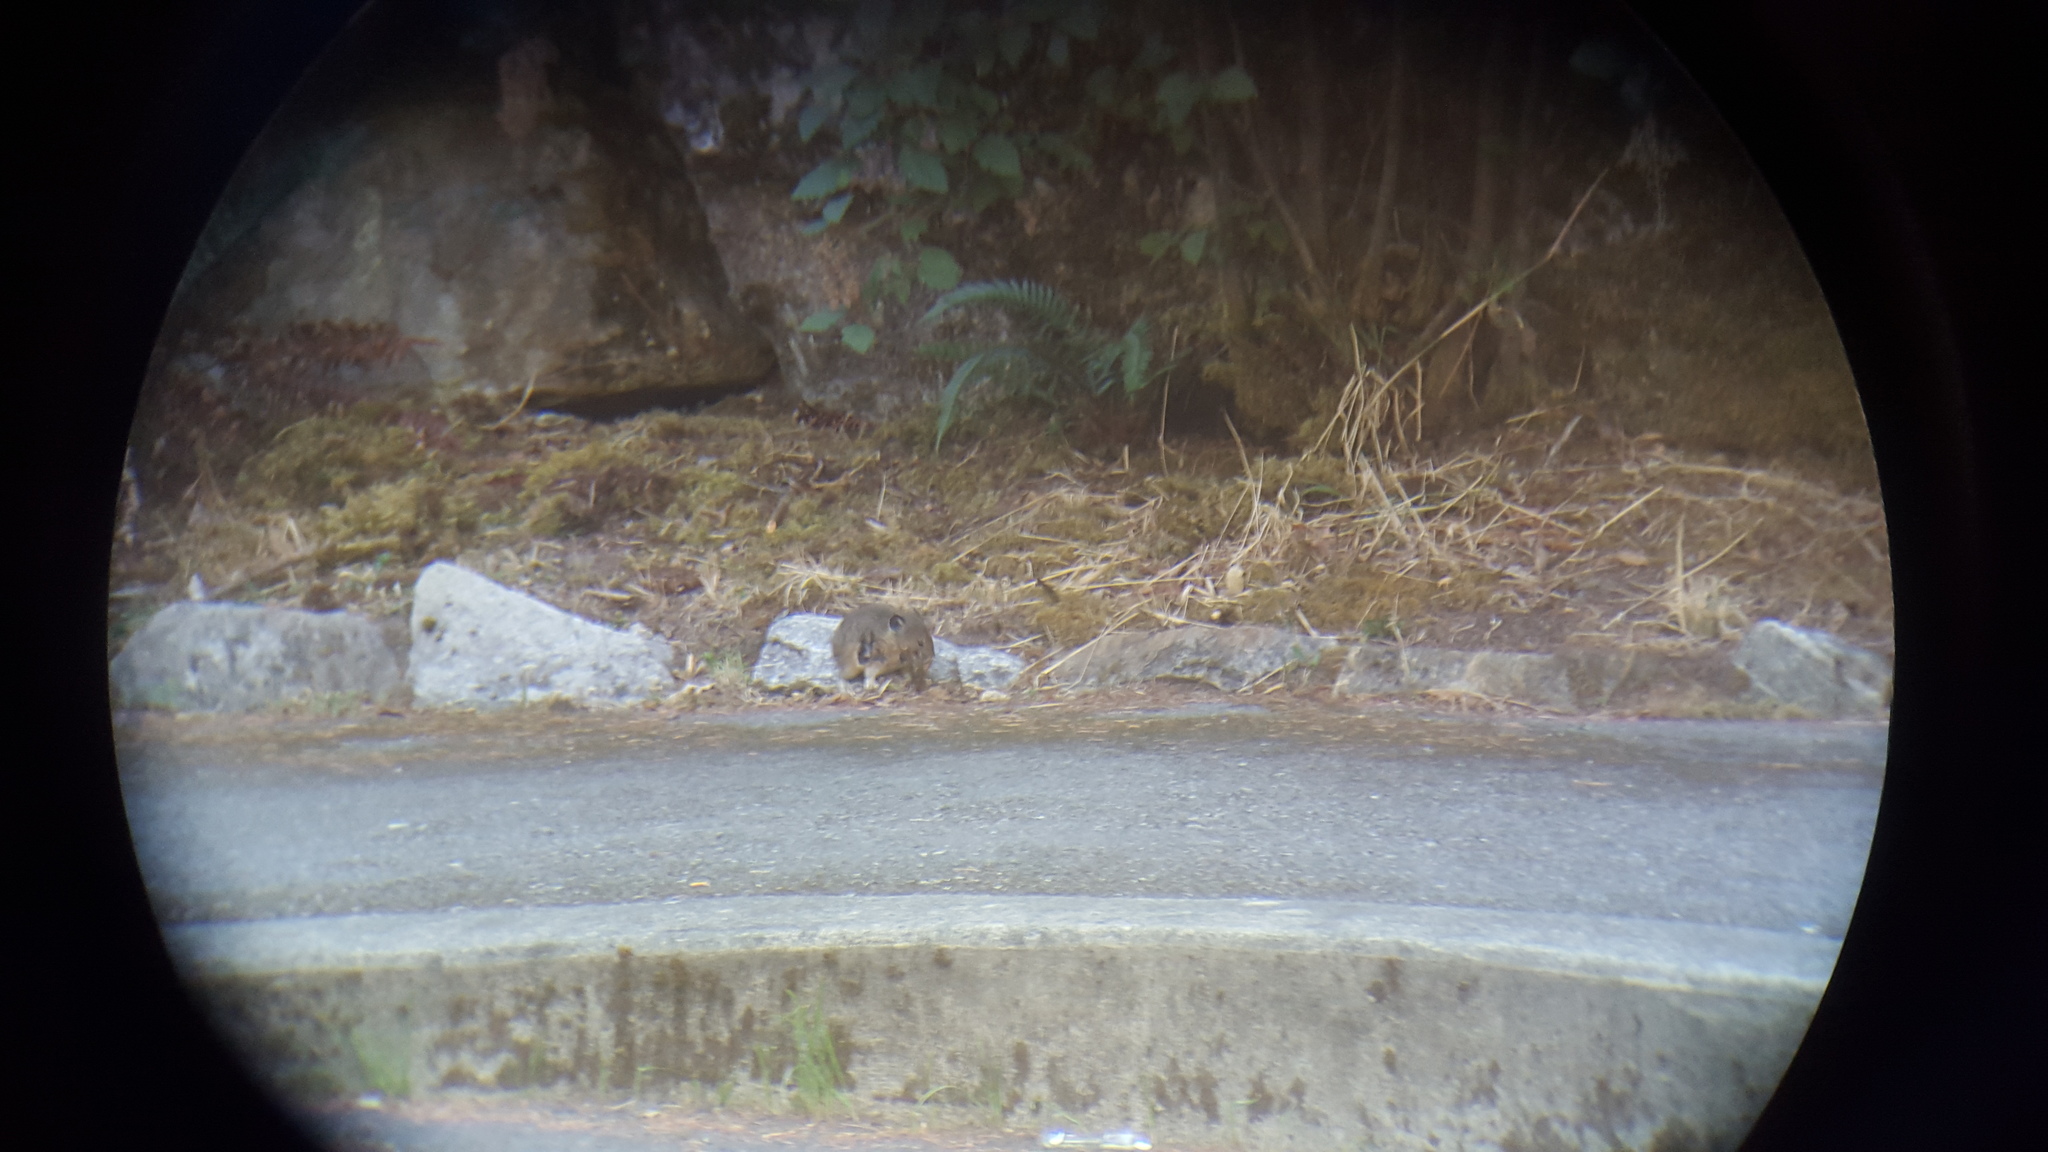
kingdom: Animalia
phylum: Chordata
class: Mammalia
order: Lagomorpha
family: Ochotonidae
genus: Ochotona
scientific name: Ochotona princeps
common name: American pika
